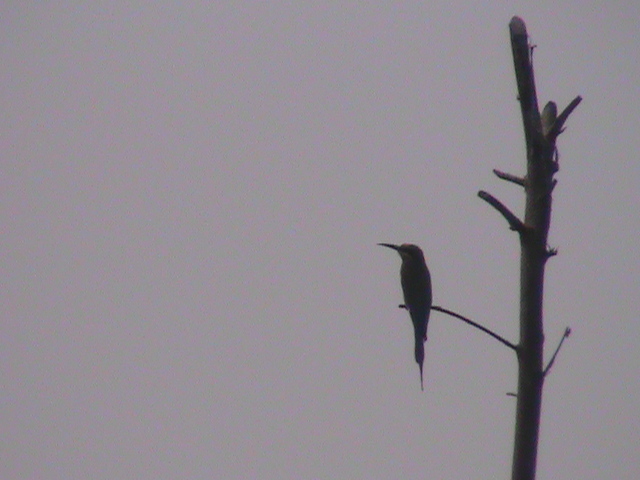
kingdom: Animalia
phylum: Chordata
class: Aves
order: Coraciiformes
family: Meropidae
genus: Merops
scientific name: Merops philippinus
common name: Blue-tailed bee-eater
